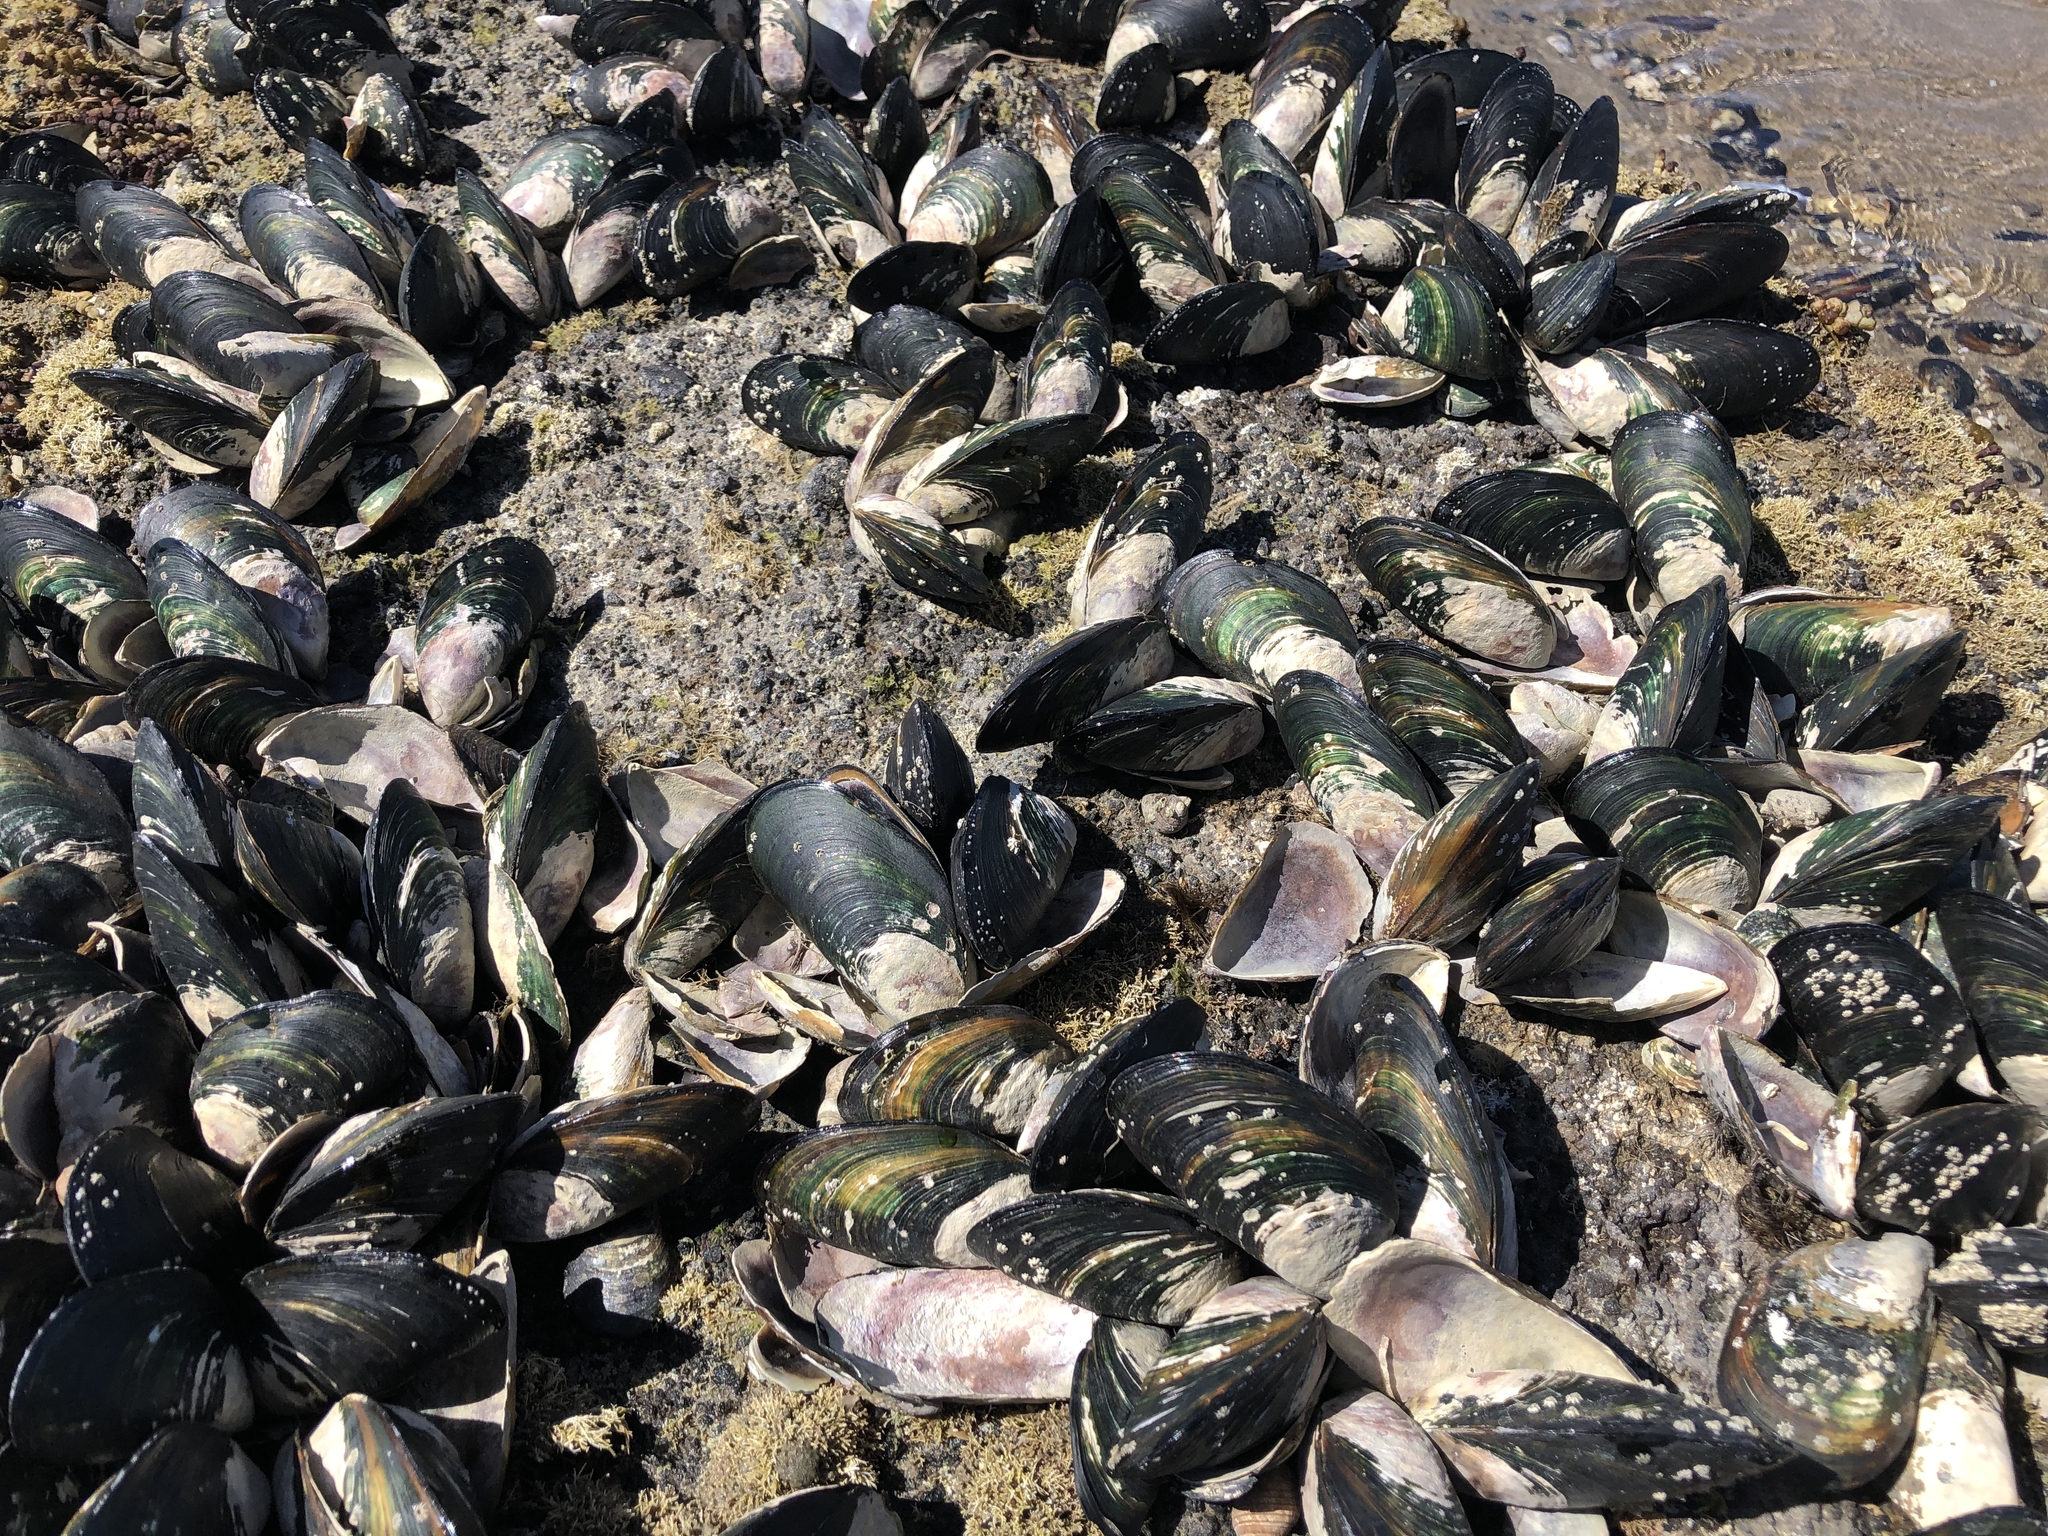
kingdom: Animalia
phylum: Mollusca
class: Bivalvia
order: Mytilida
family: Mytilidae
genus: Perna
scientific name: Perna canaliculus
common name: New zealand greenshelltm
